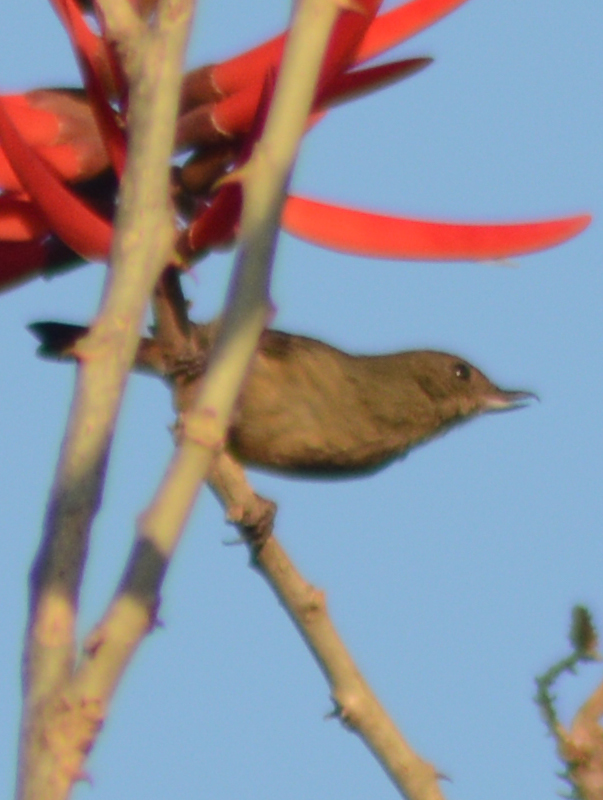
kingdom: Animalia
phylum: Chordata
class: Aves
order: Passeriformes
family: Thraupidae
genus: Diglossa
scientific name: Diglossa baritula
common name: Cinnamon-bellied flowerpiercer
